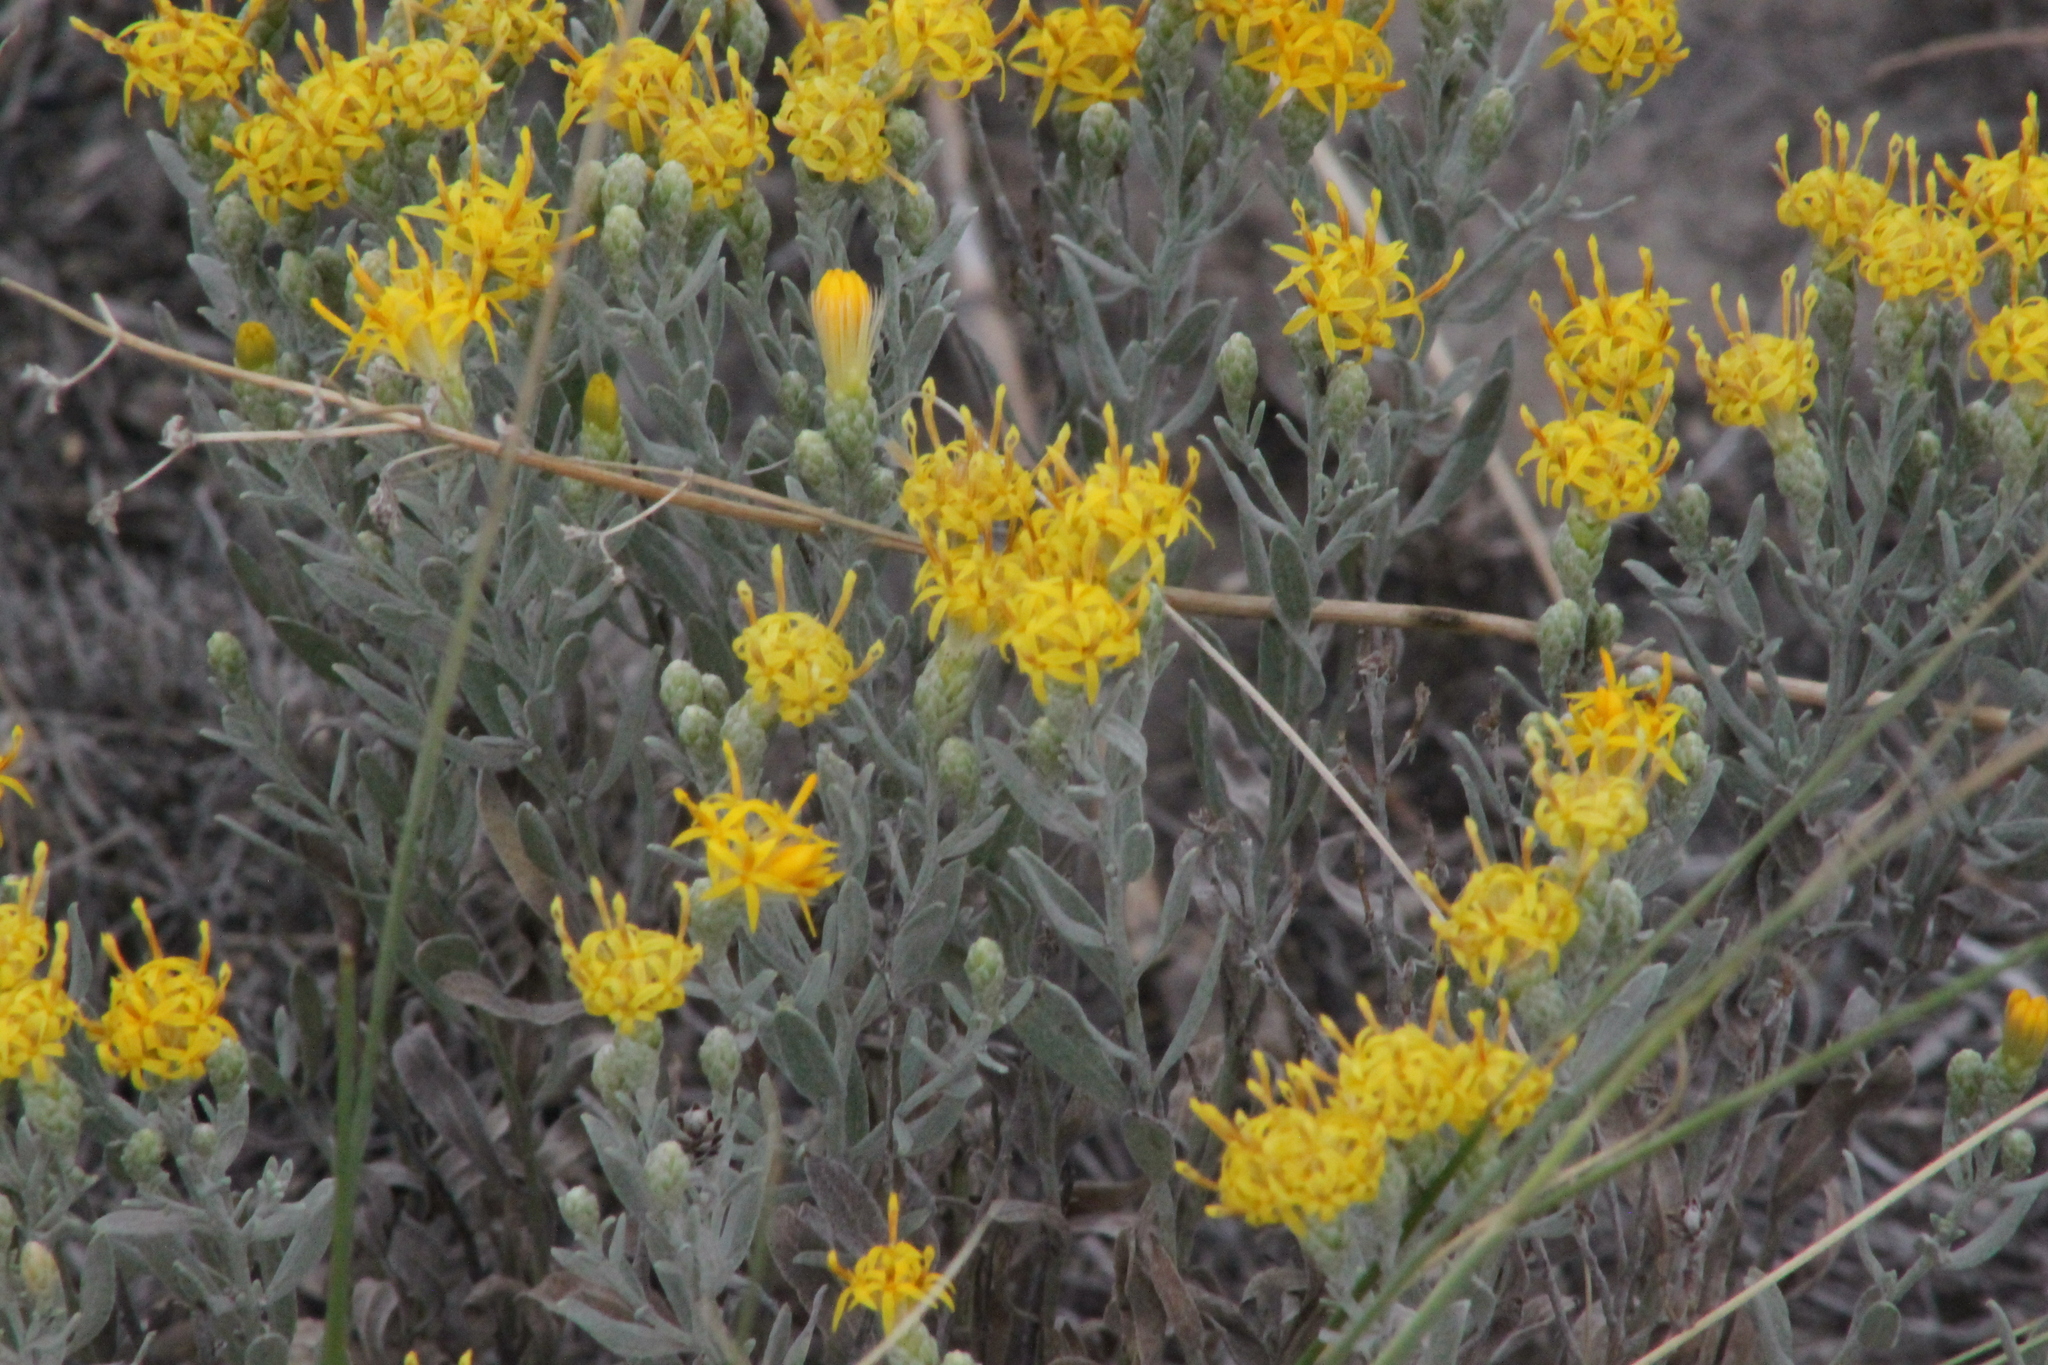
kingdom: Plantae
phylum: Tracheophyta
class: Magnoliopsida
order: Asterales
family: Asteraceae
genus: Galatella
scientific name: Galatella villosa
